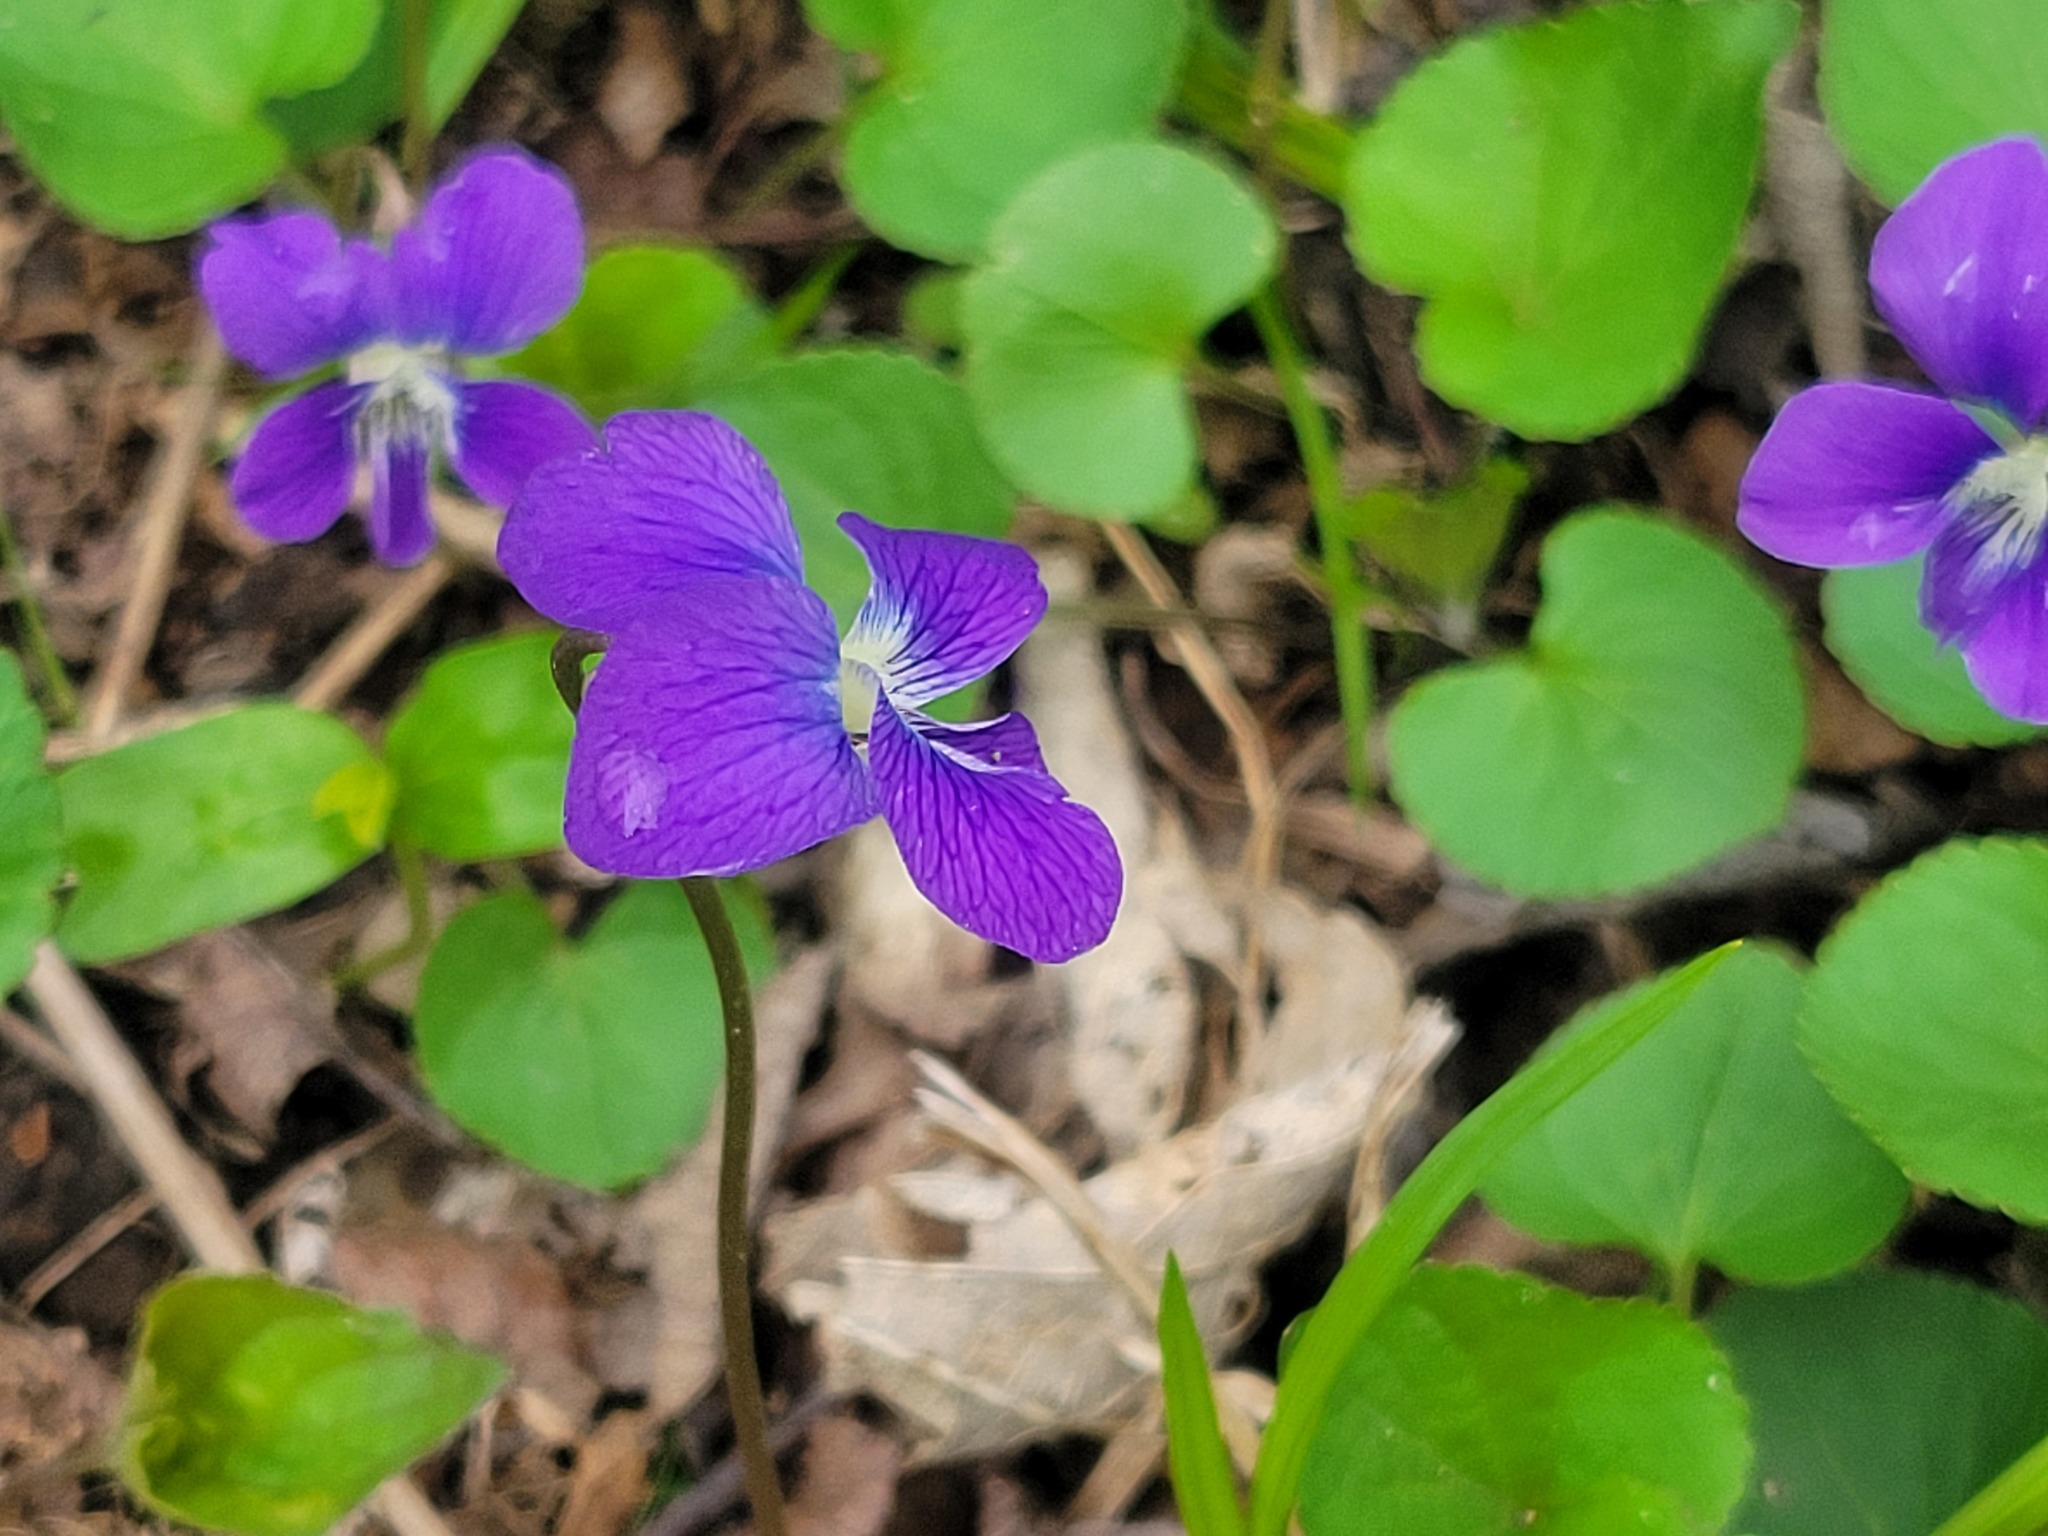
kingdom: Plantae
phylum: Tracheophyta
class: Magnoliopsida
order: Malpighiales
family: Violaceae
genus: Viola
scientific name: Viola sororia
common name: Dooryard violet
